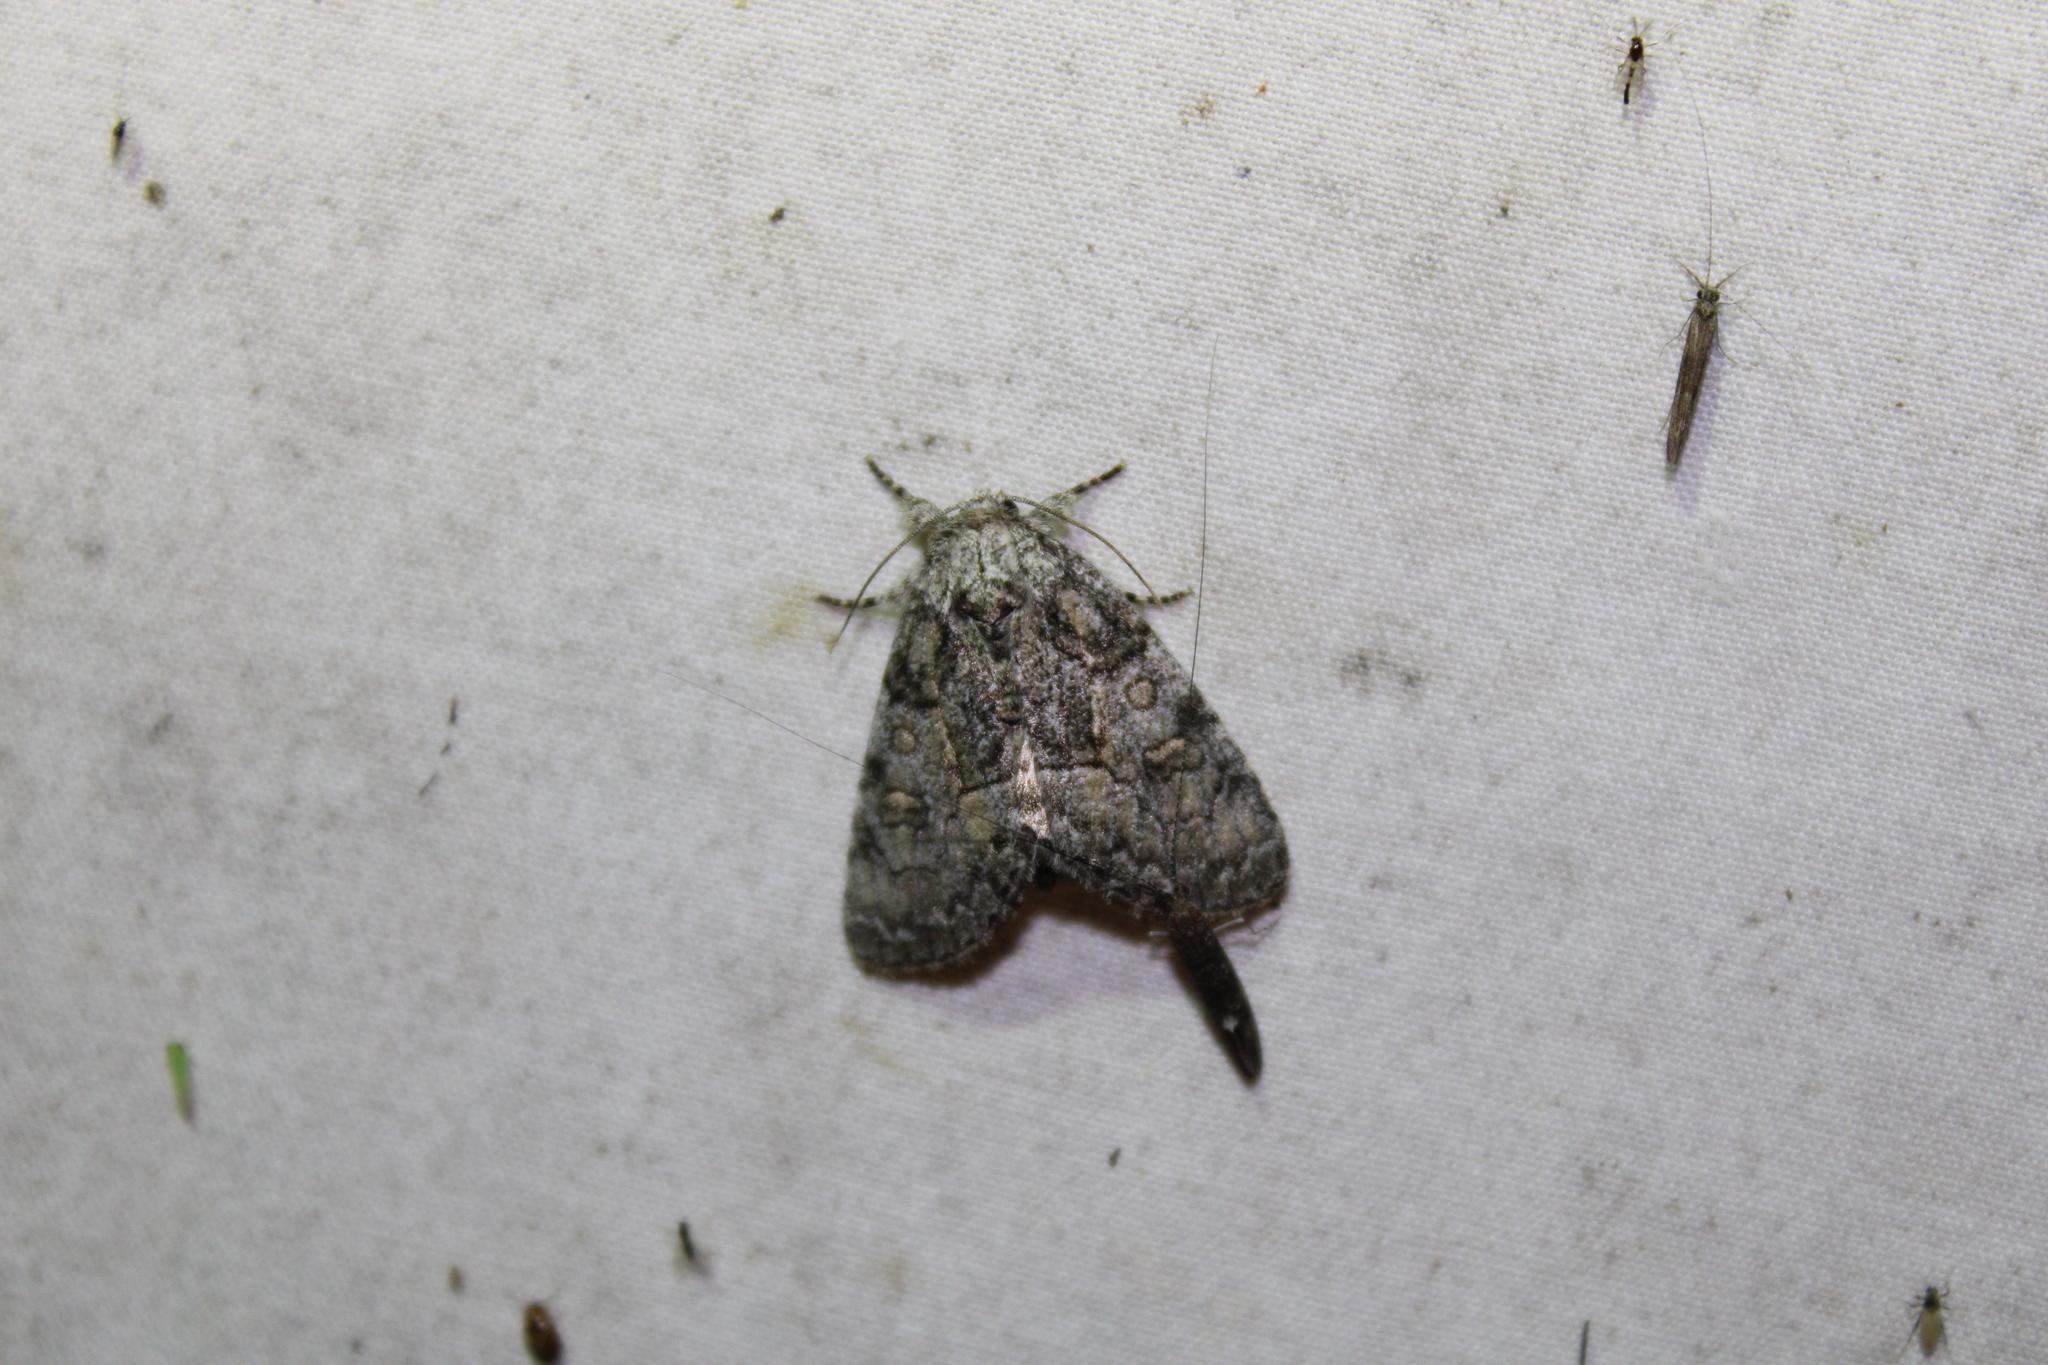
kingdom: Animalia
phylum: Arthropoda
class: Insecta
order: Lepidoptera
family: Noctuidae
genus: Raphia
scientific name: Raphia frater
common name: Brother
